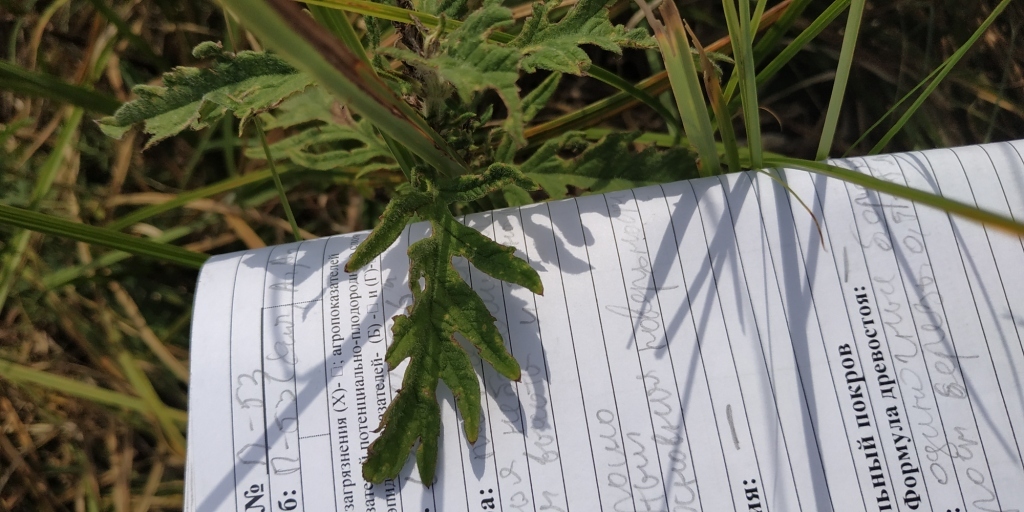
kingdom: Plantae
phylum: Tracheophyta
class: Magnoliopsida
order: Lamiales
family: Lamiaceae
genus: Lycopus
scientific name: Lycopus exaltatus
